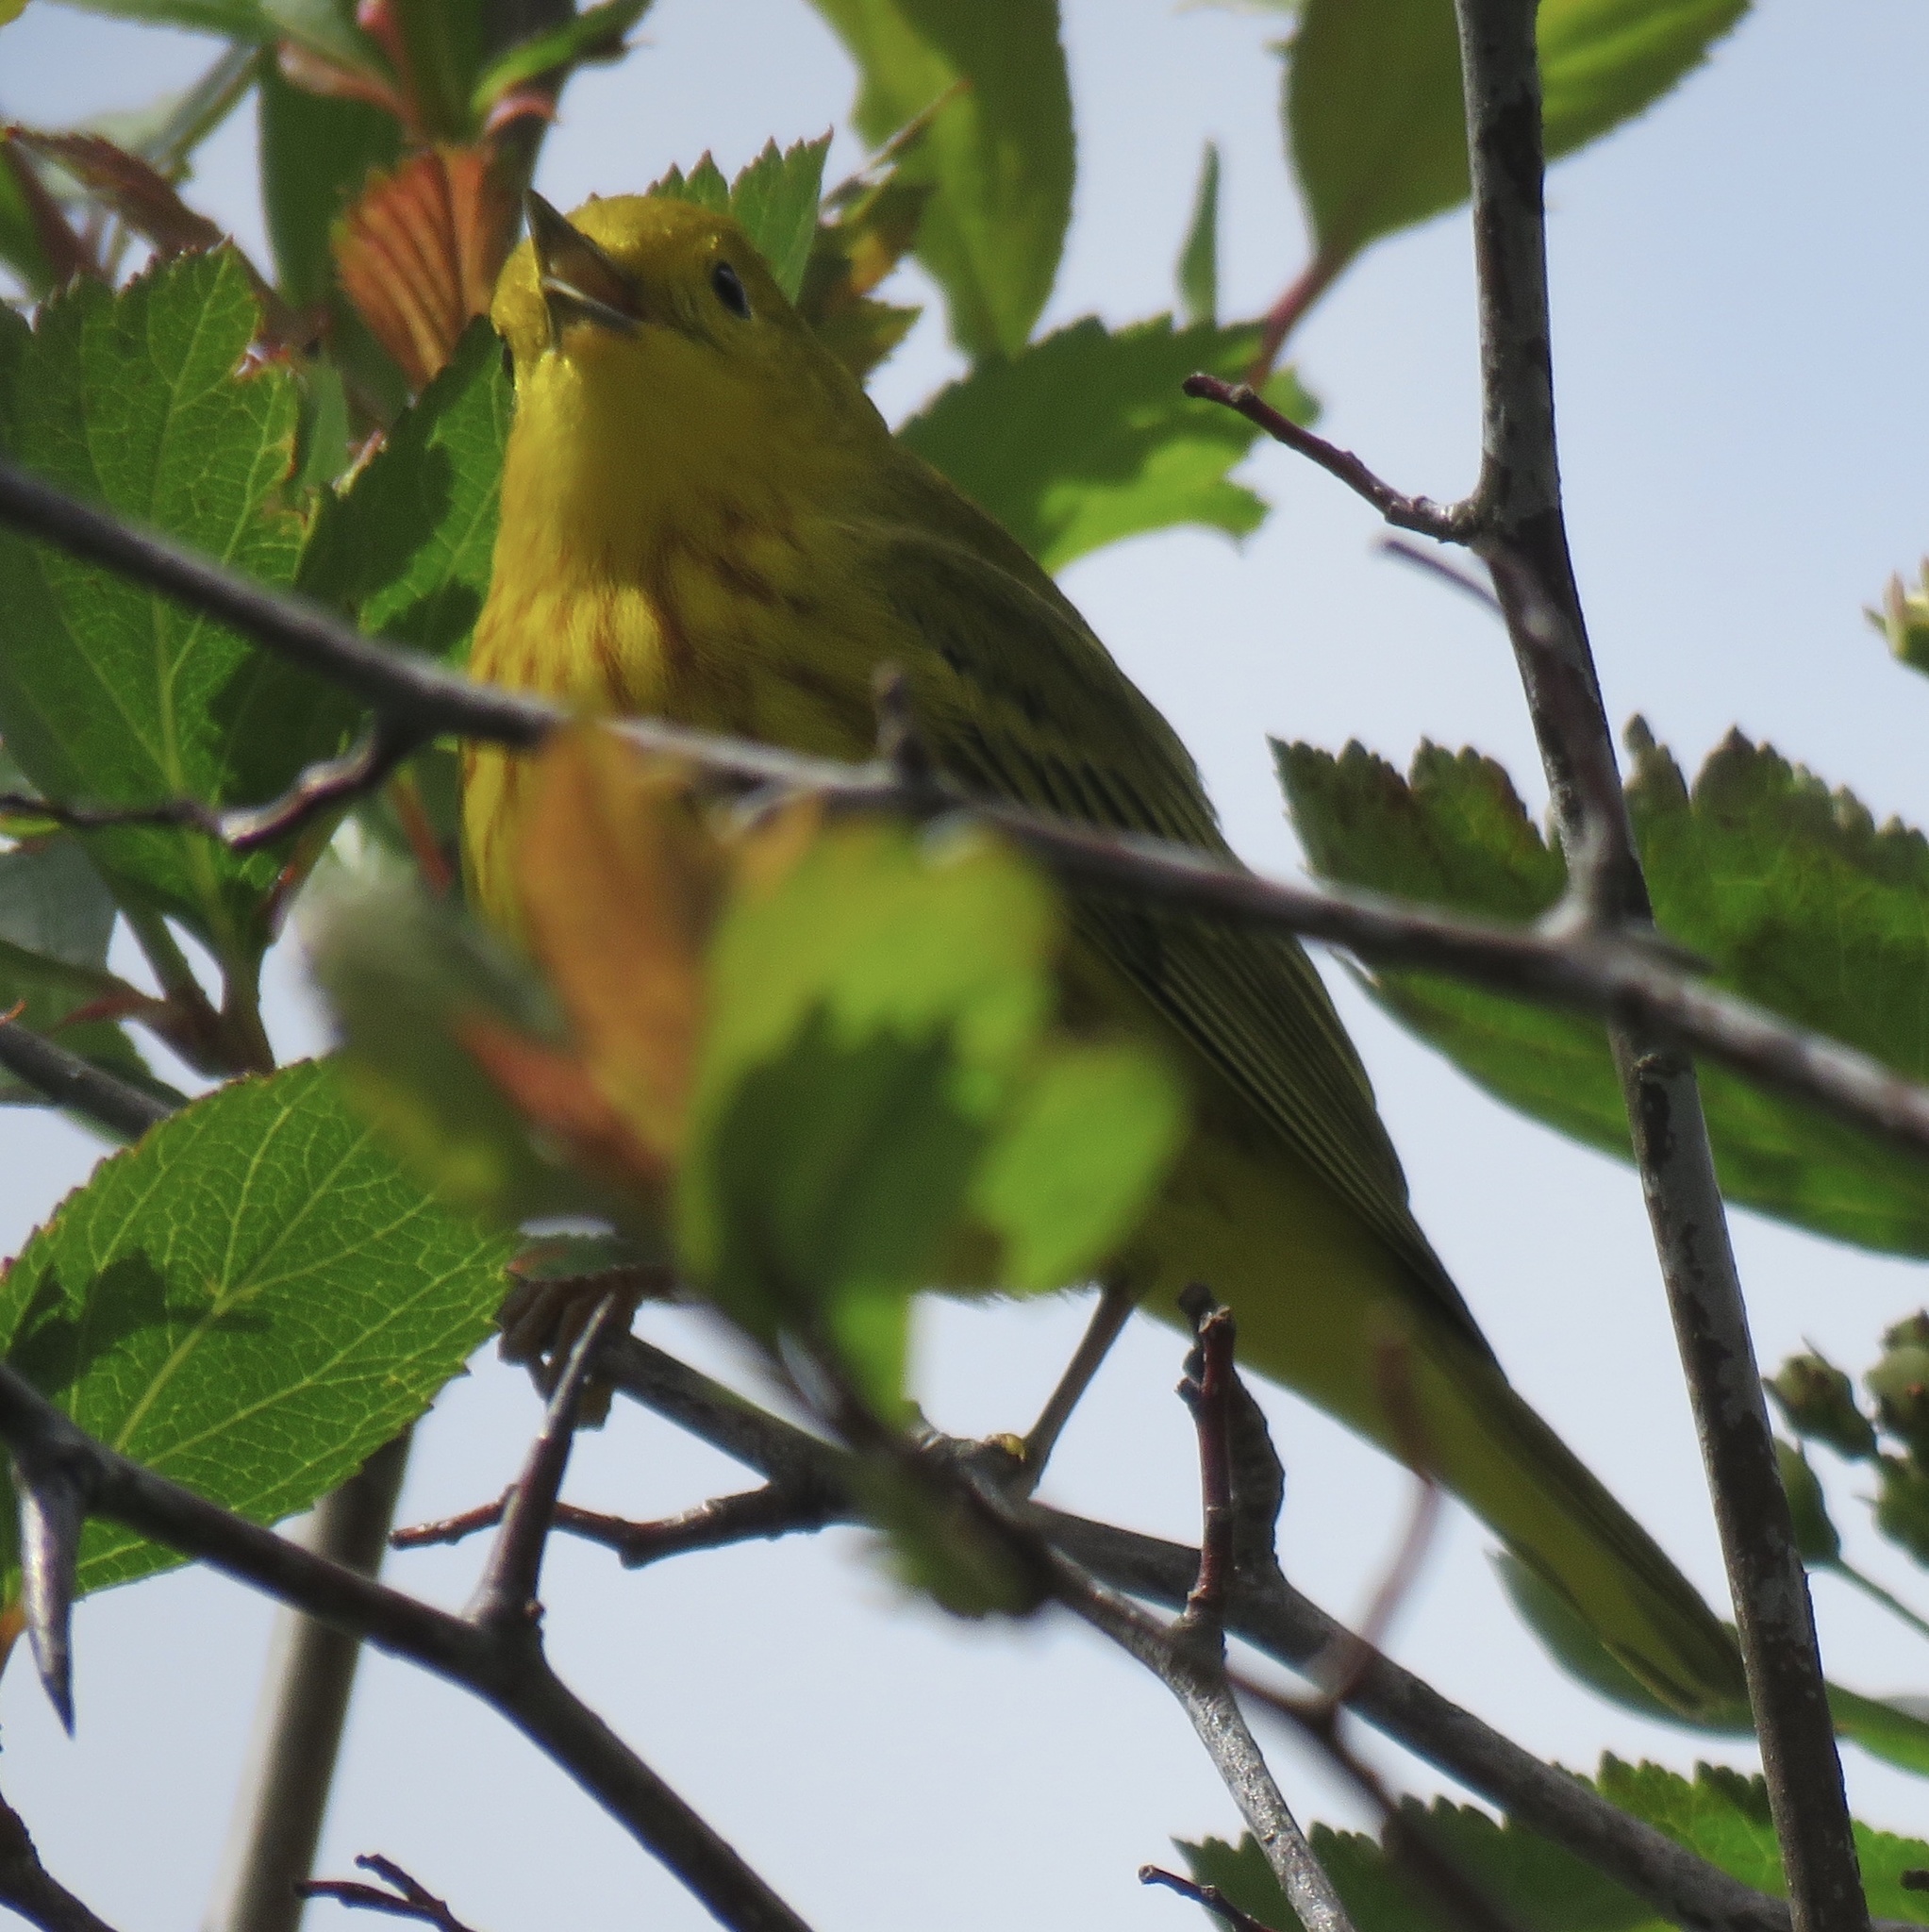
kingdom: Animalia
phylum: Chordata
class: Aves
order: Passeriformes
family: Parulidae
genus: Setophaga
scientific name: Setophaga petechia
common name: Yellow warbler
